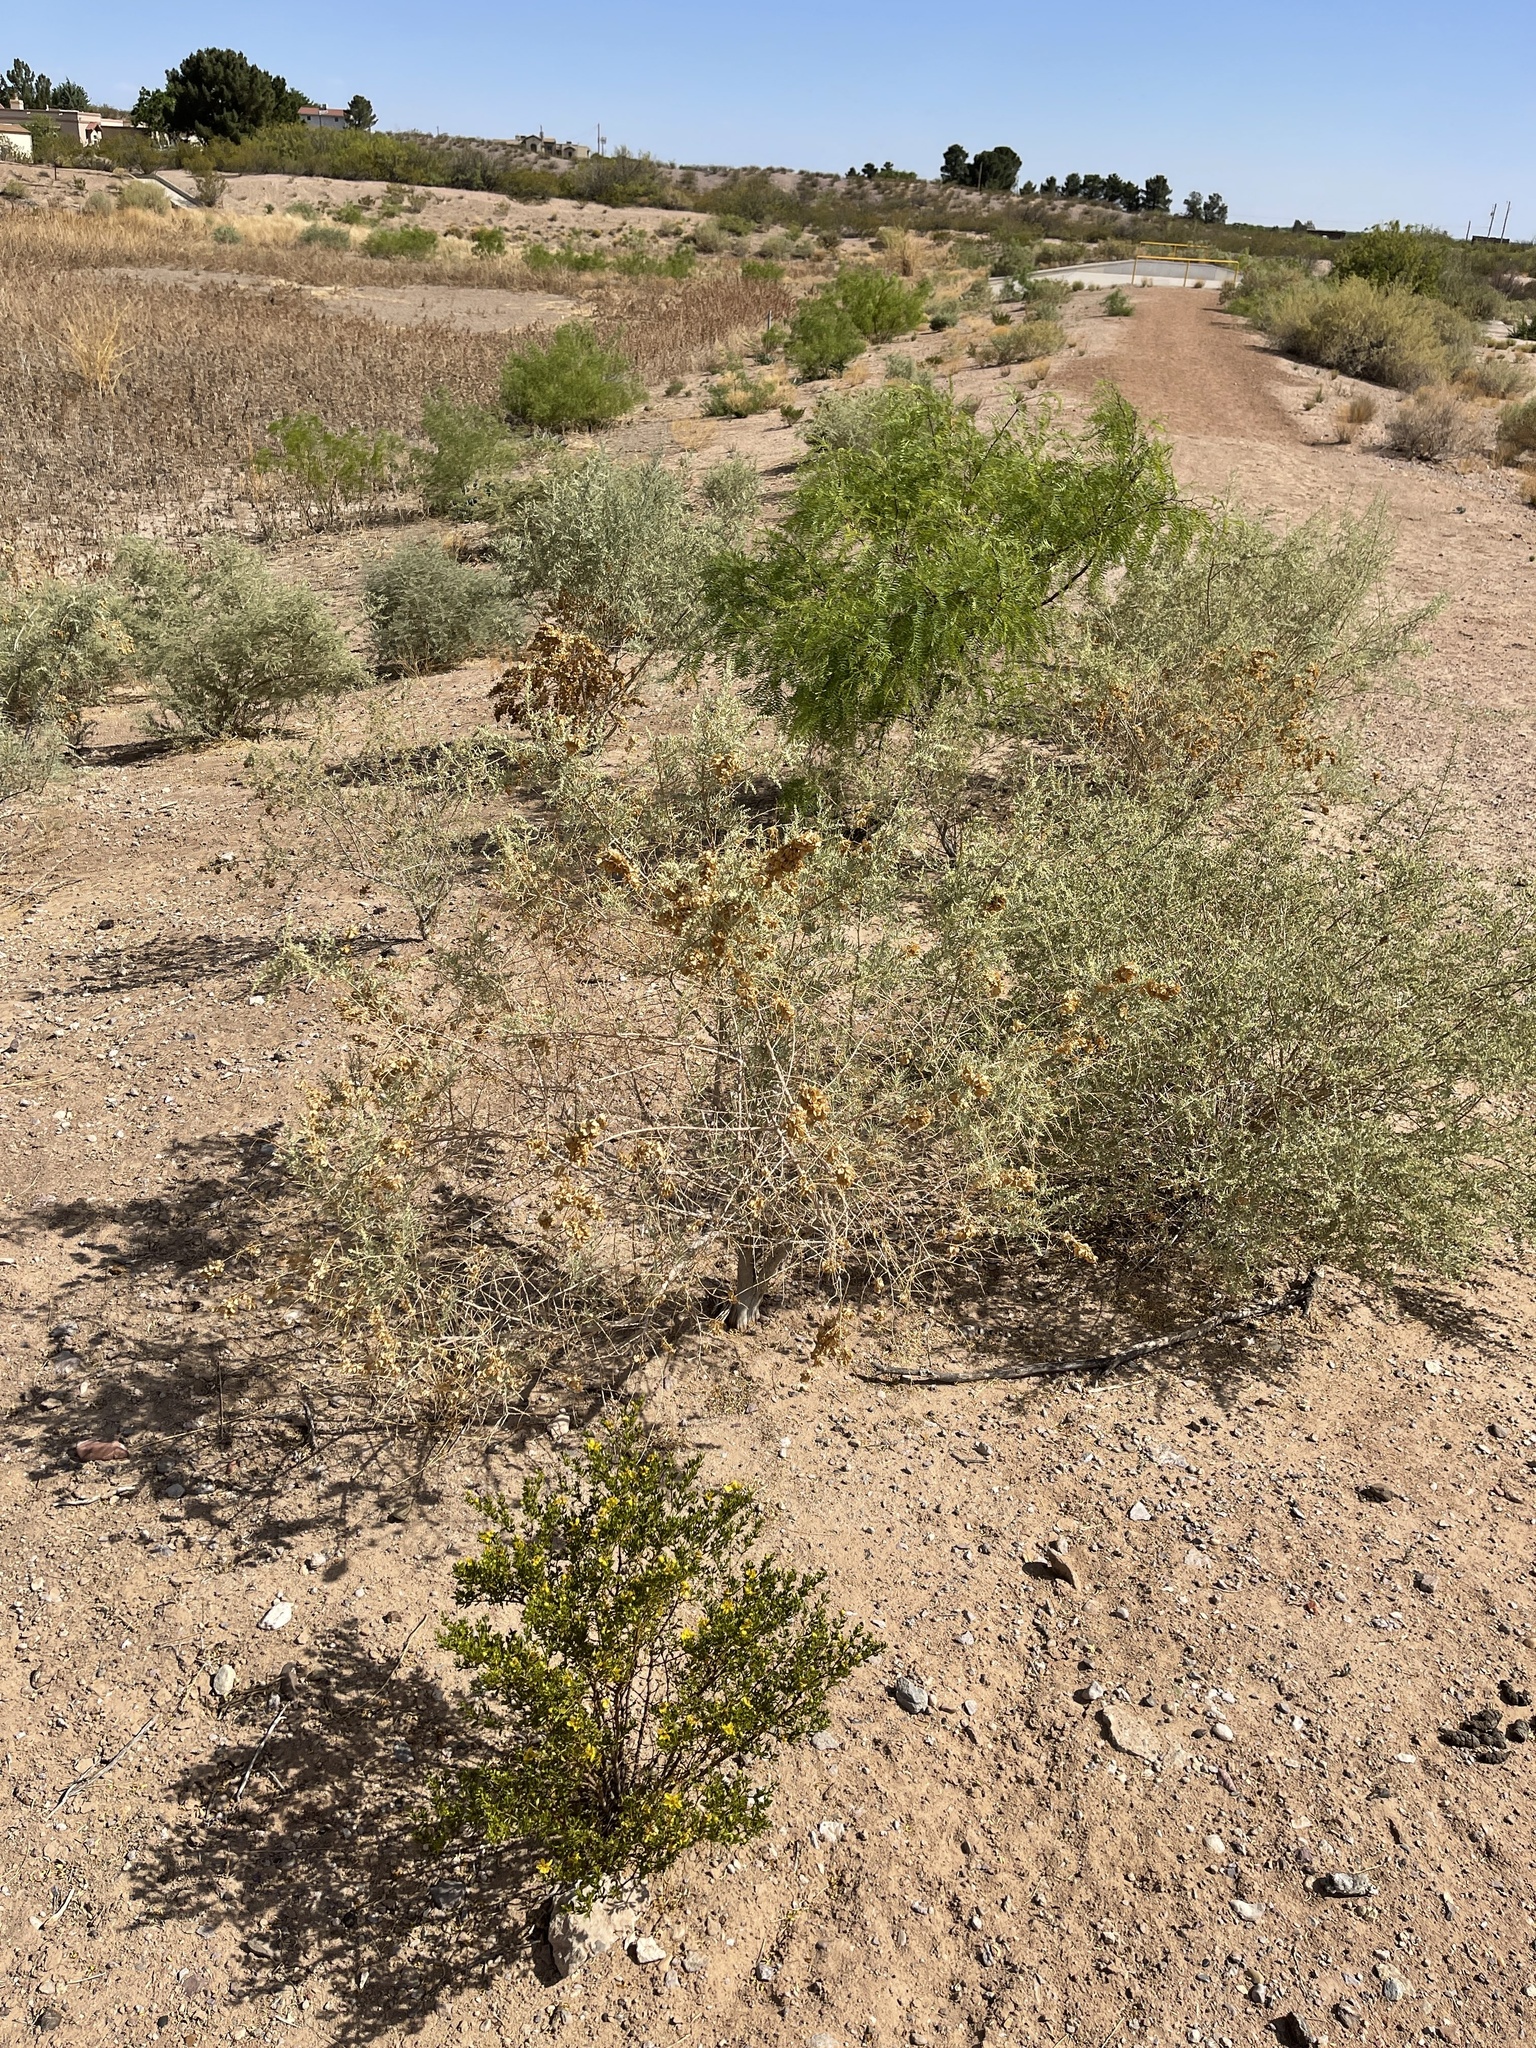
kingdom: Plantae
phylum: Tracheophyta
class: Magnoliopsida
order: Caryophyllales
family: Amaranthaceae
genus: Atriplex
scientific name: Atriplex canescens
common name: Four-wing saltbush
